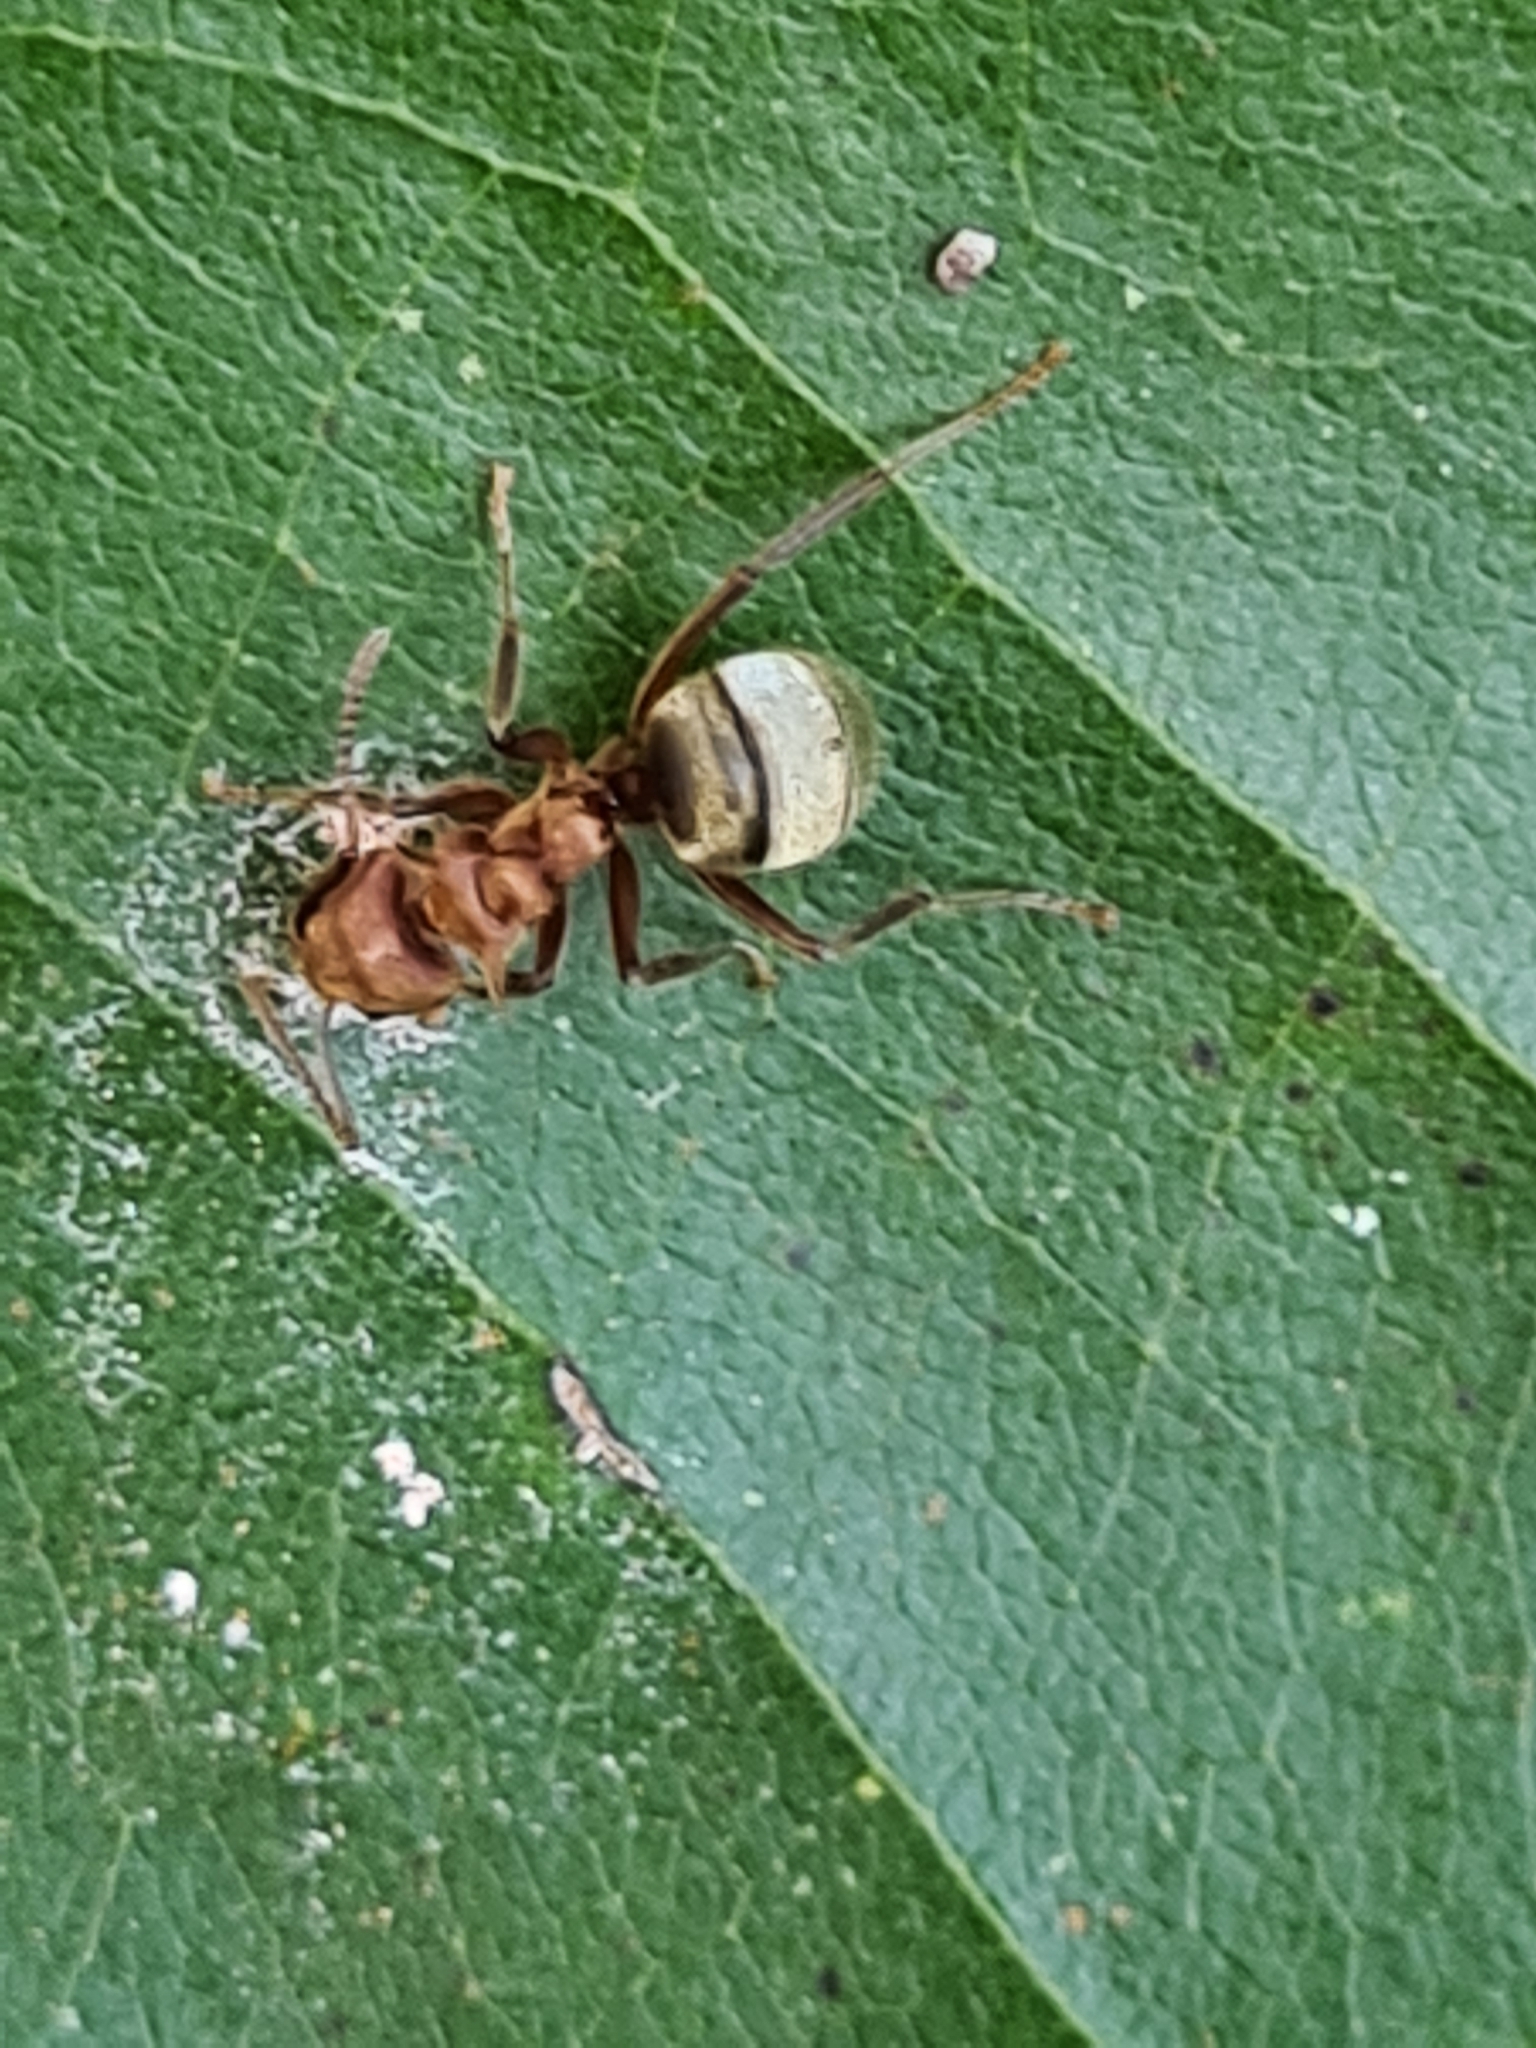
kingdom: Animalia
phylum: Arthropoda
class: Insecta
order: Hymenoptera
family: Formicidae
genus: Dolichoderus
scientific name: Dolichoderus omacanthus
